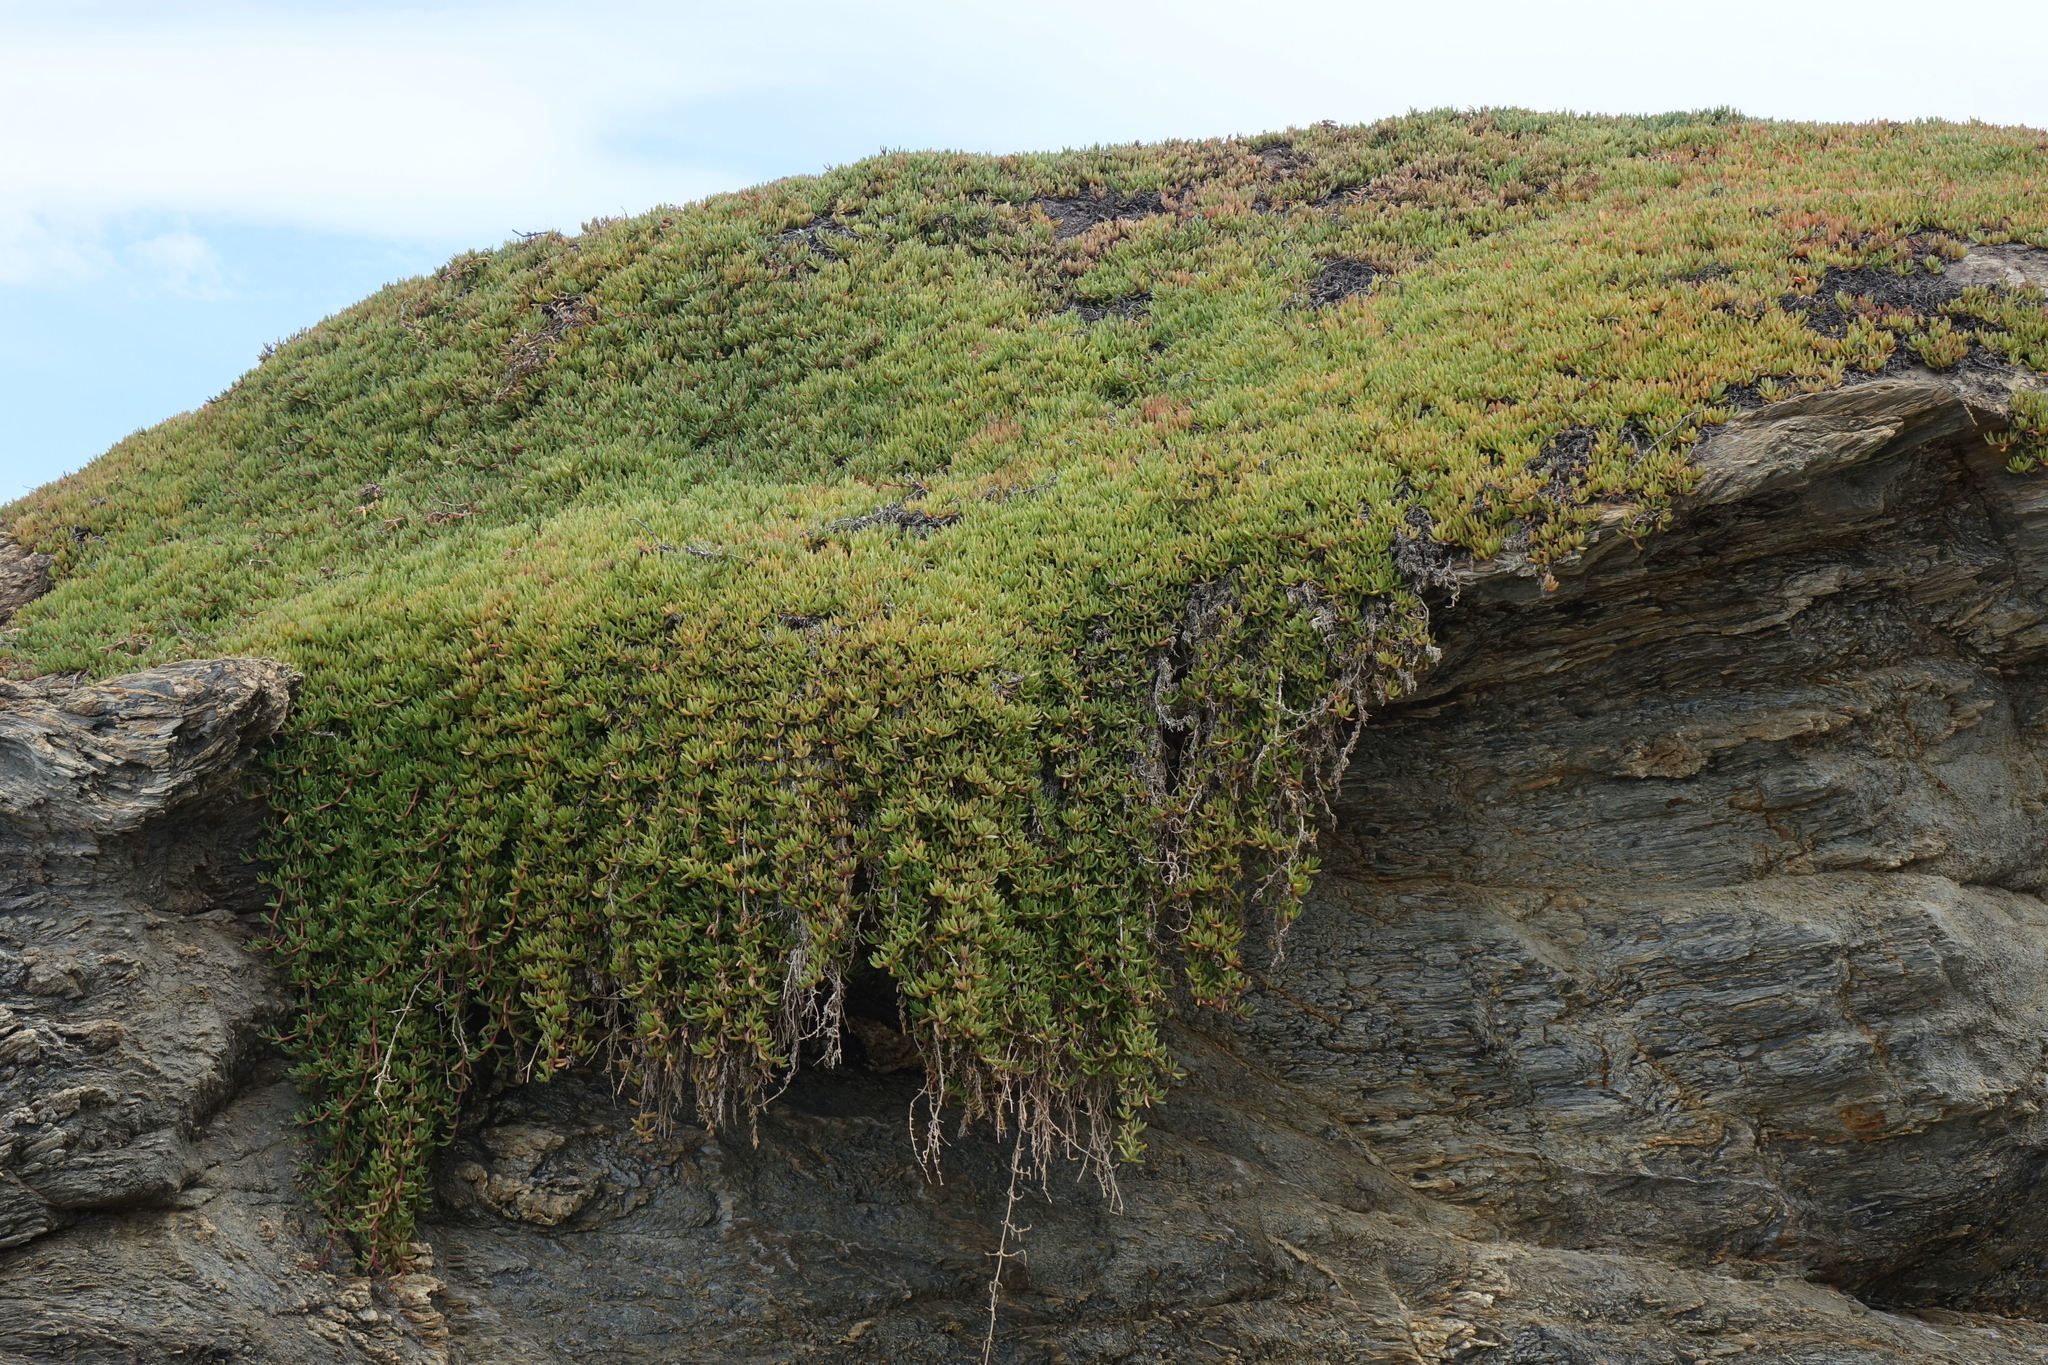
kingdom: Plantae
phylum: Tracheophyta
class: Magnoliopsida
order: Caryophyllales
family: Aizoaceae
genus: Disphyma
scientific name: Disphyma australe
